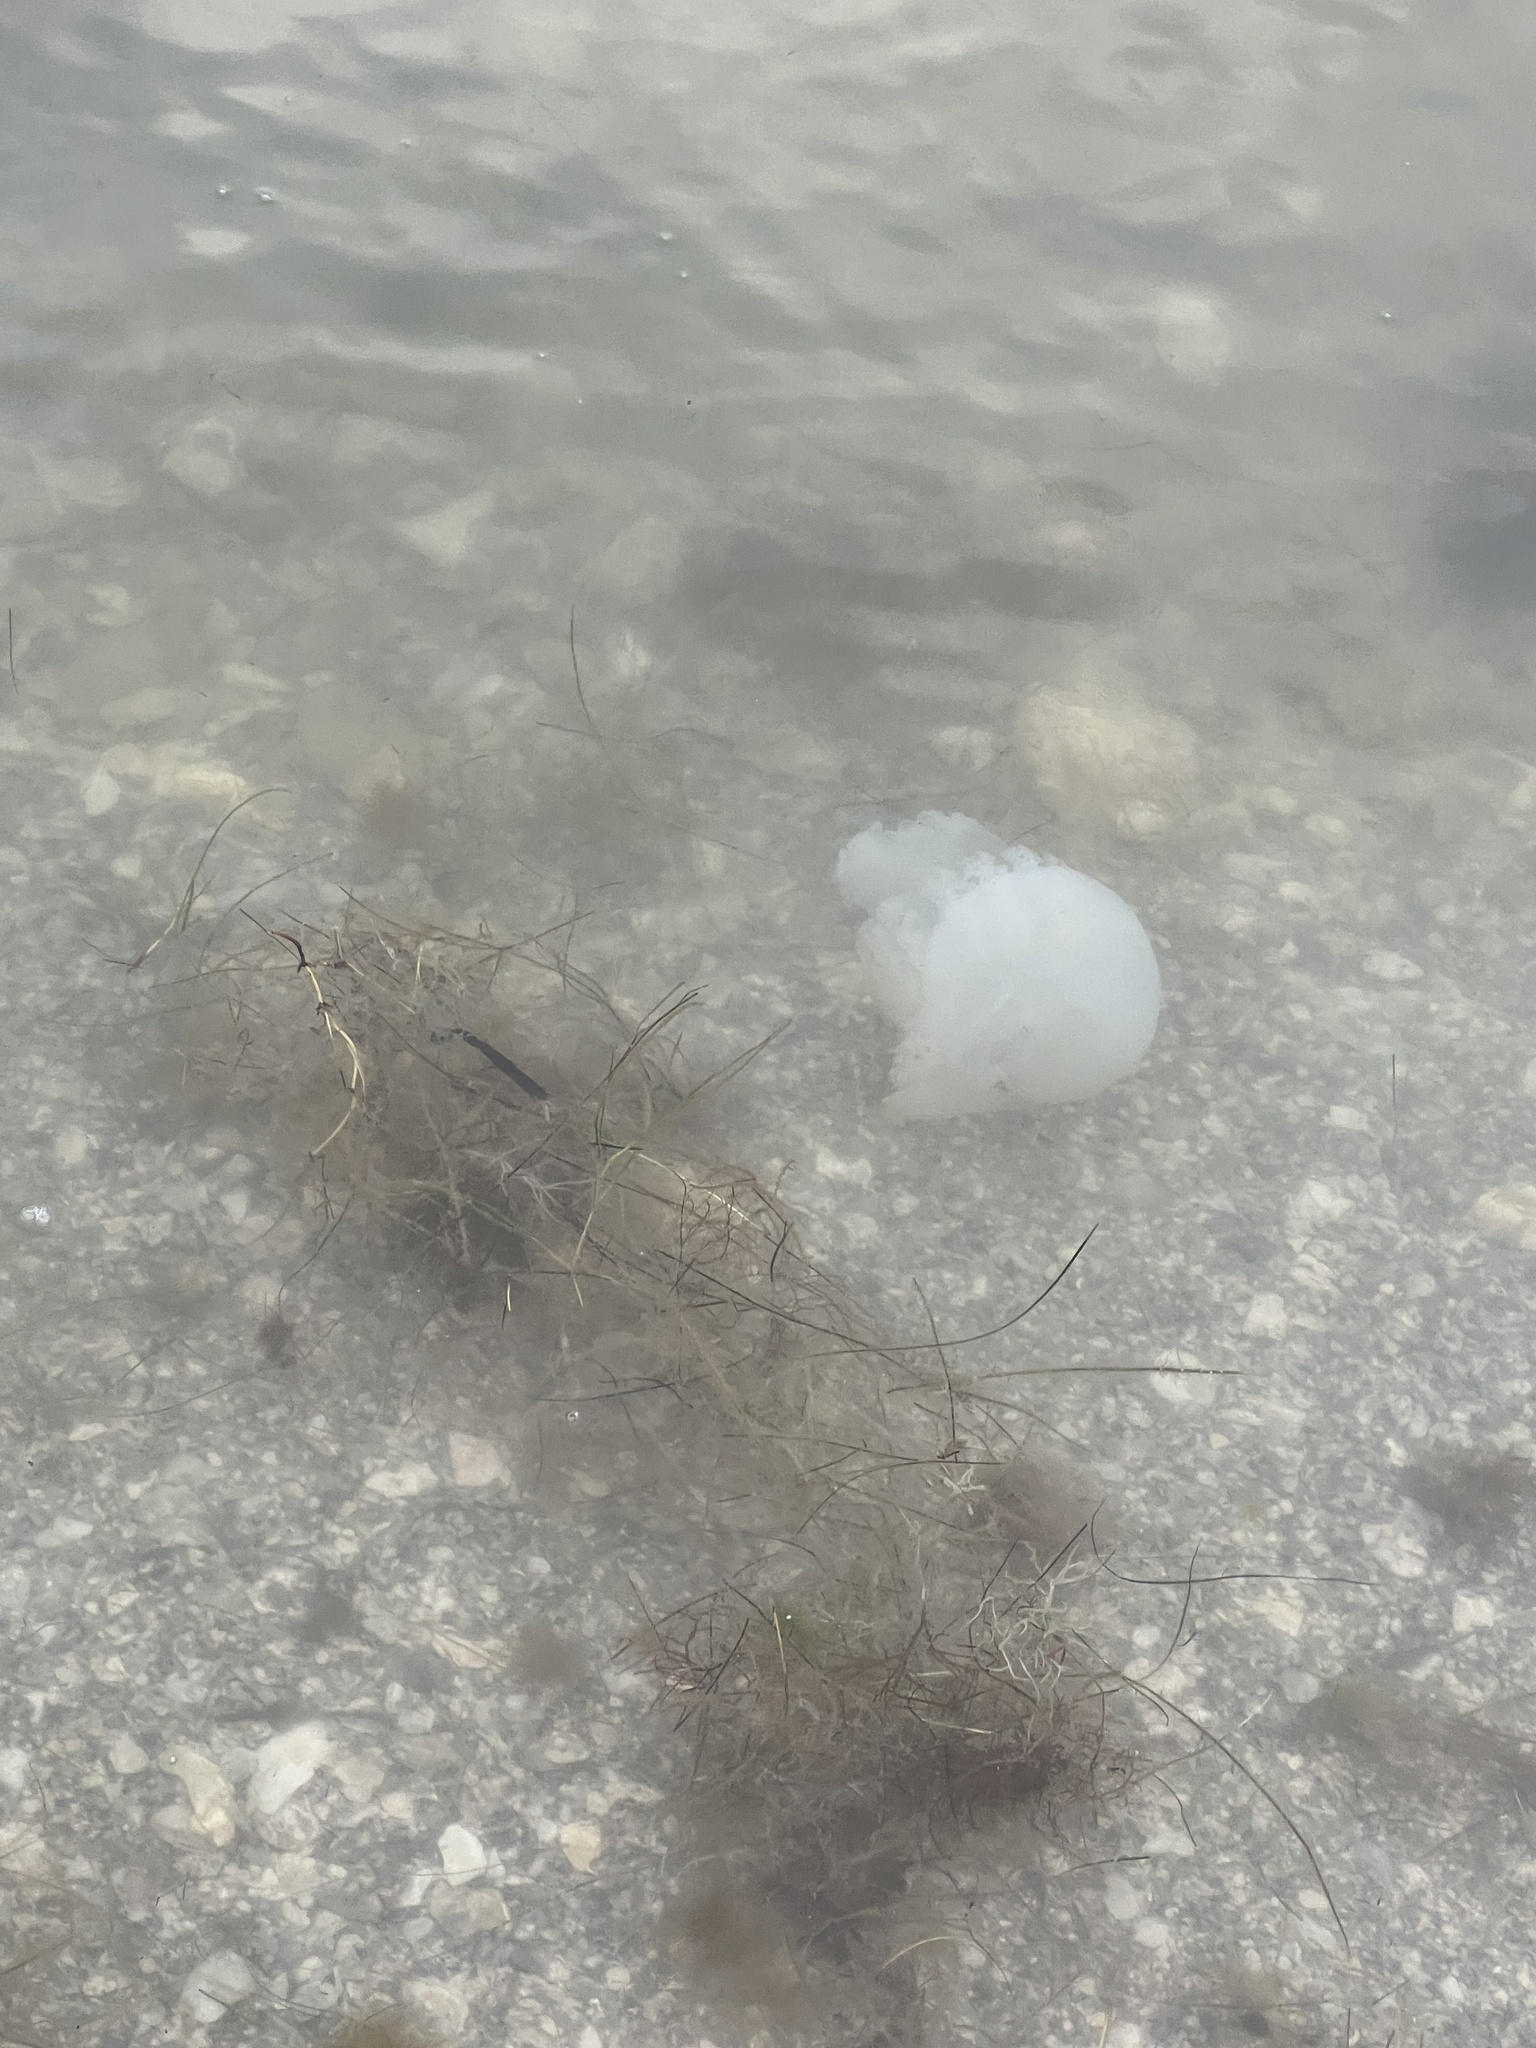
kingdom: Animalia
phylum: Cnidaria
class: Scyphozoa
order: Rhizostomeae
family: Stomolophidae
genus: Stomolophus
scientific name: Stomolophus meleagris
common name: Cabbagehead
